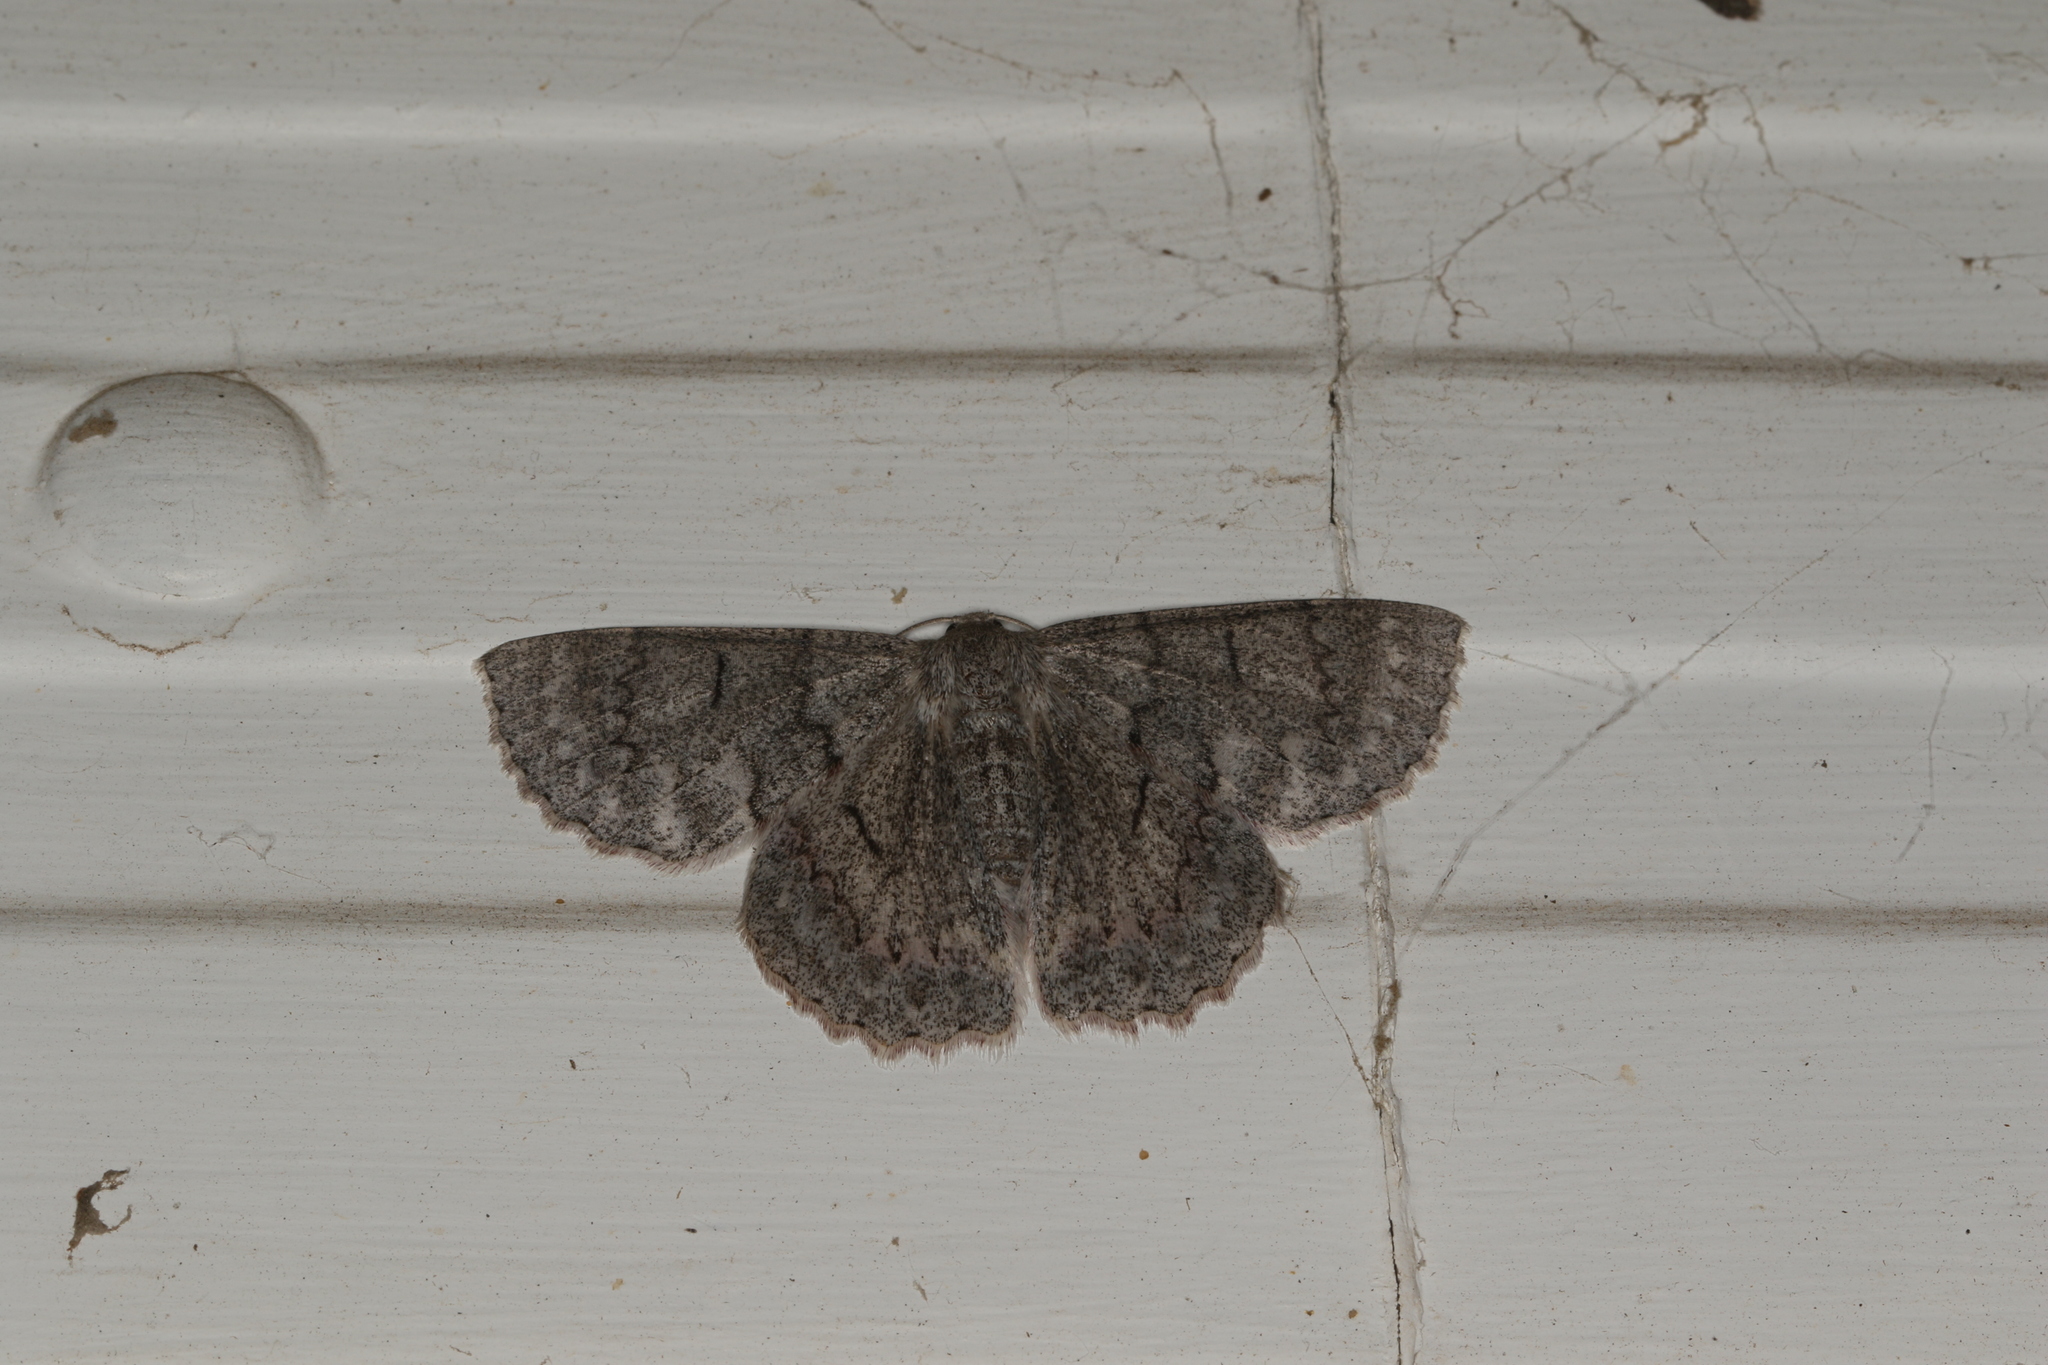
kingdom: Animalia
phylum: Arthropoda
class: Insecta
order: Lepidoptera
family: Geometridae
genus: Crypsiphona
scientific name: Crypsiphona ocultaria
